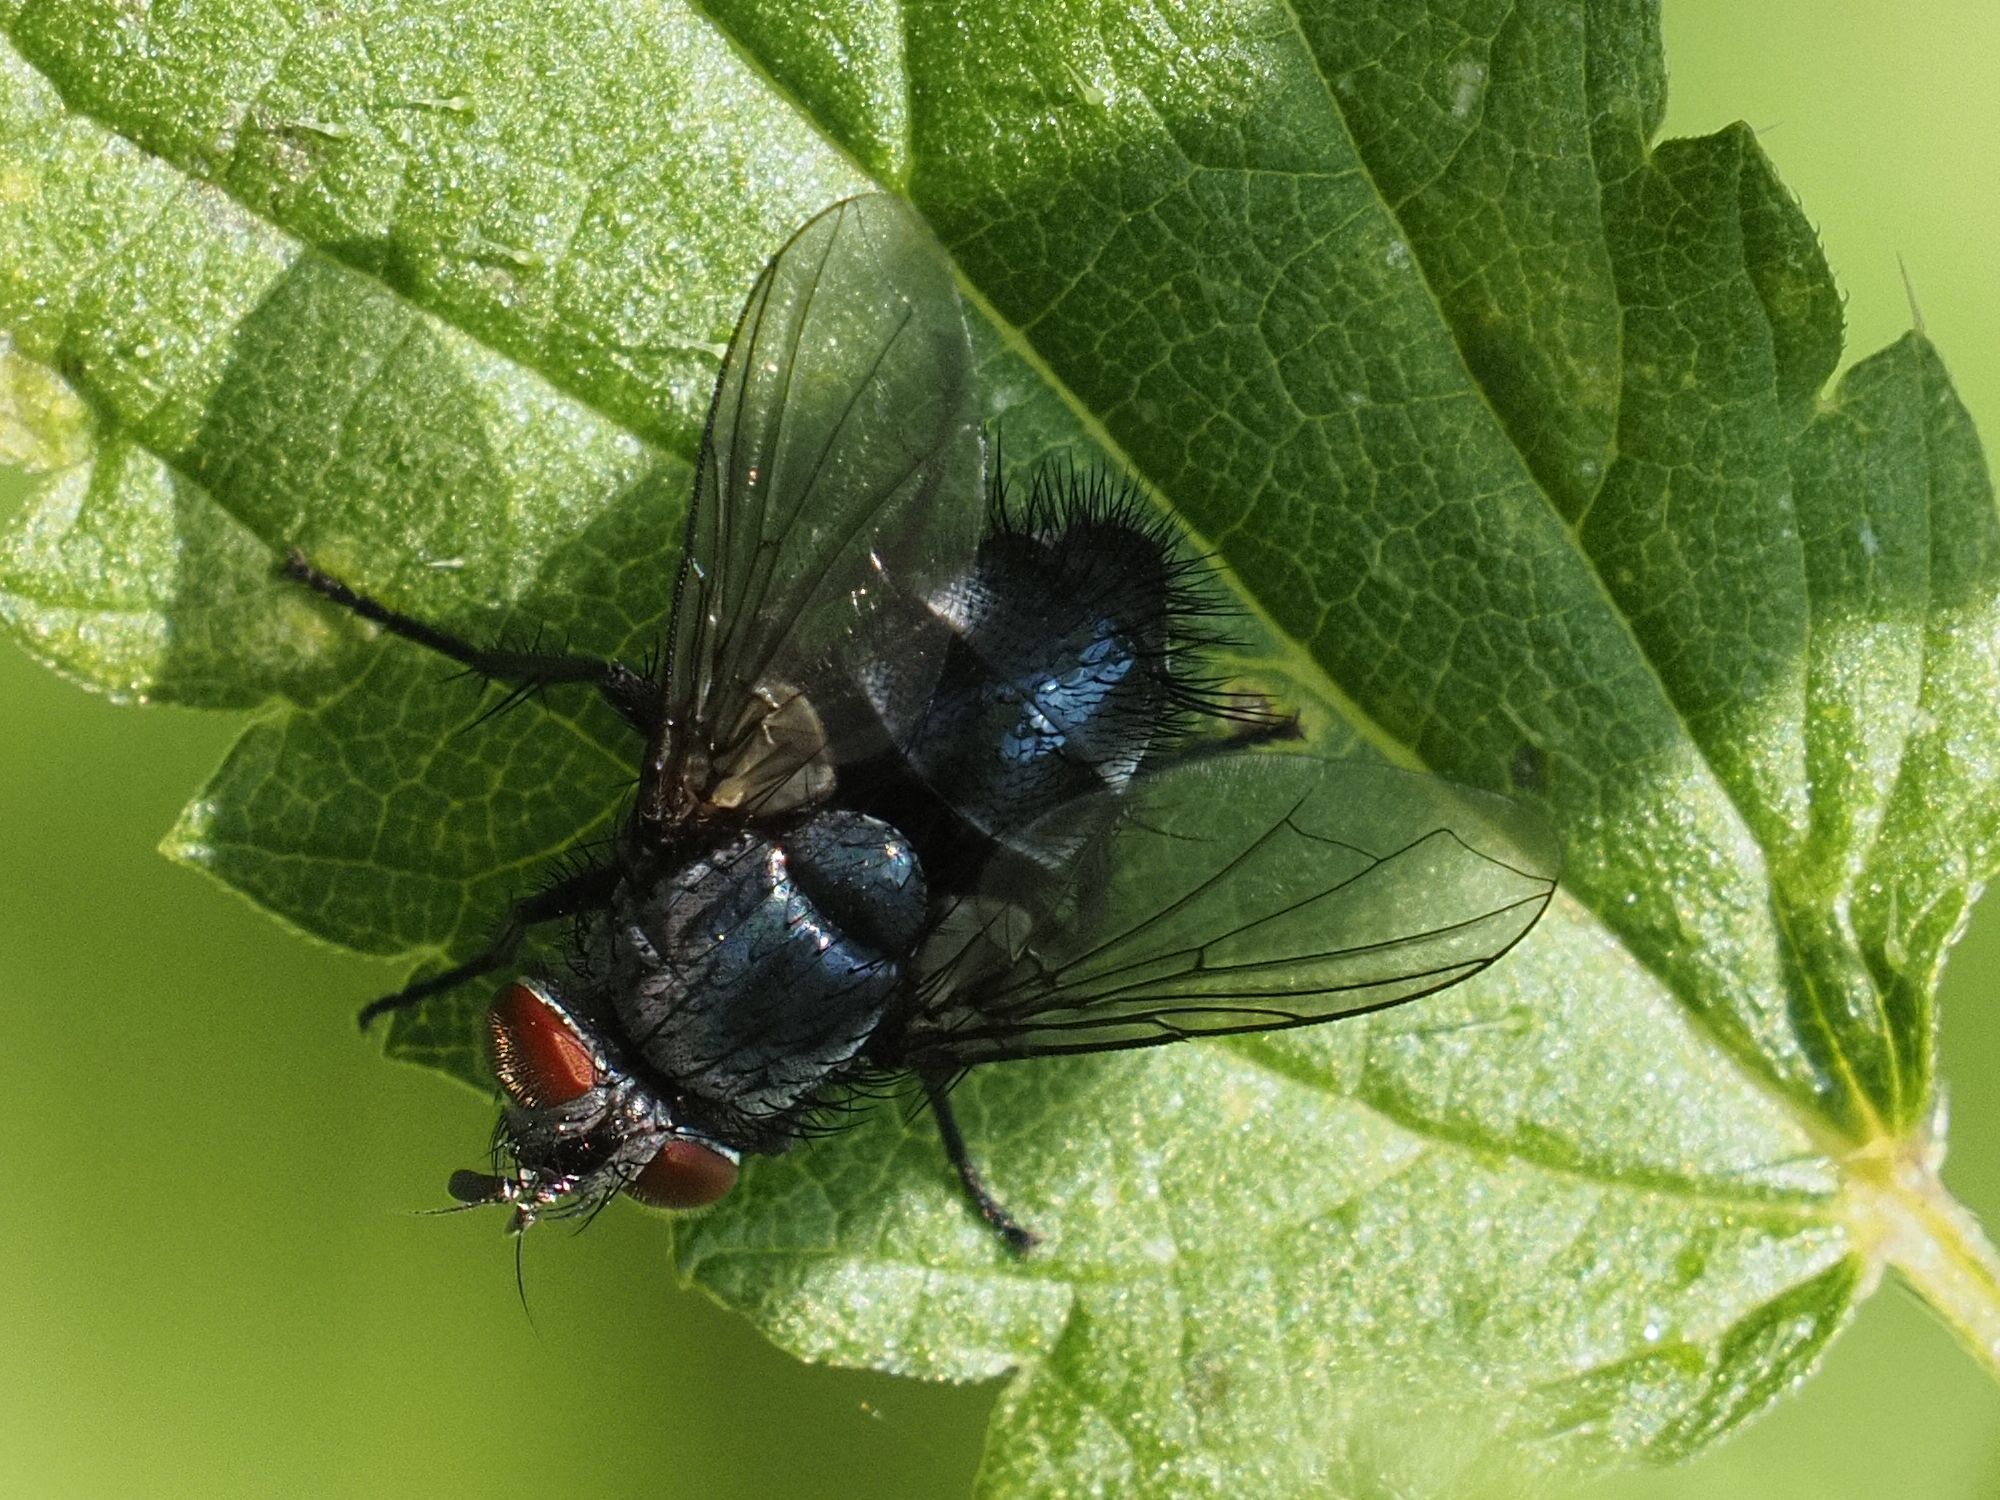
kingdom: Animalia
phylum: Arthropoda
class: Insecta
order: Diptera
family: Tachinidae
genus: Epicampocera
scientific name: Epicampocera succincta
